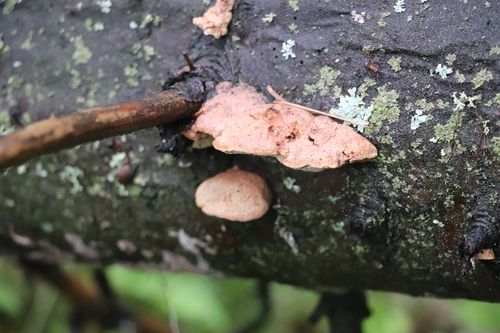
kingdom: Fungi
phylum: Basidiomycota
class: Agaricomycetes
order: Polyporales
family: Phanerochaetaceae
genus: Hapalopilus
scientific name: Hapalopilus rutilans
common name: Tender nesting polypore
